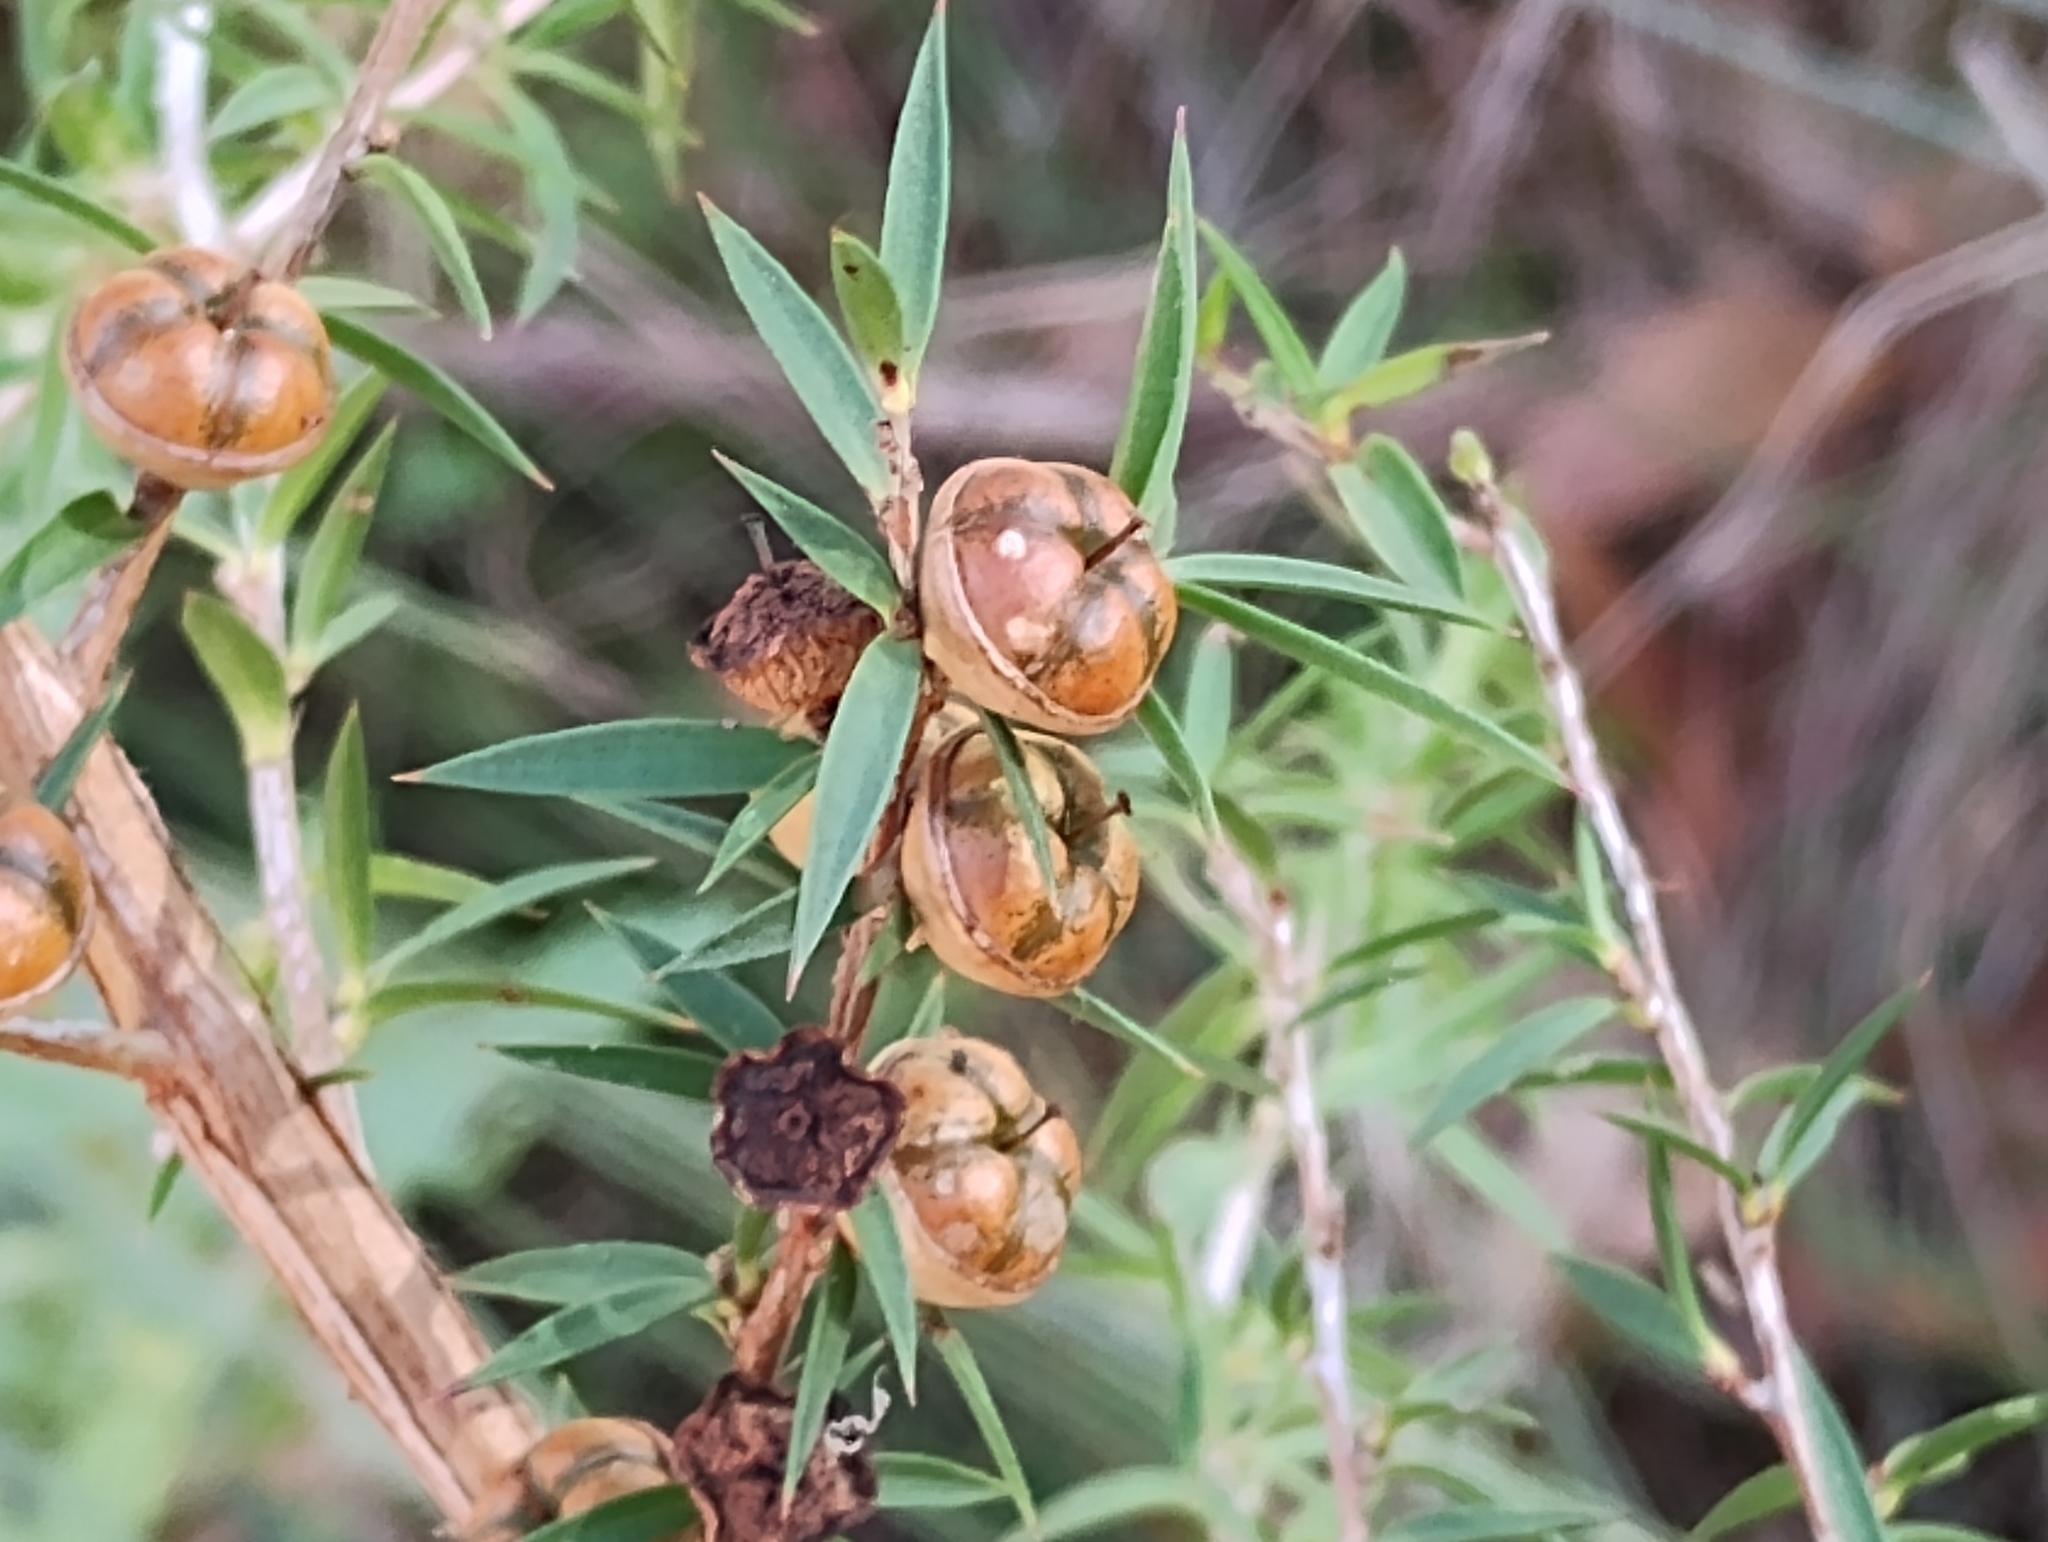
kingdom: Plantae
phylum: Tracheophyta
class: Magnoliopsida
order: Myrtales
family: Myrtaceae
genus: Leptospermum
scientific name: Leptospermum continentale
